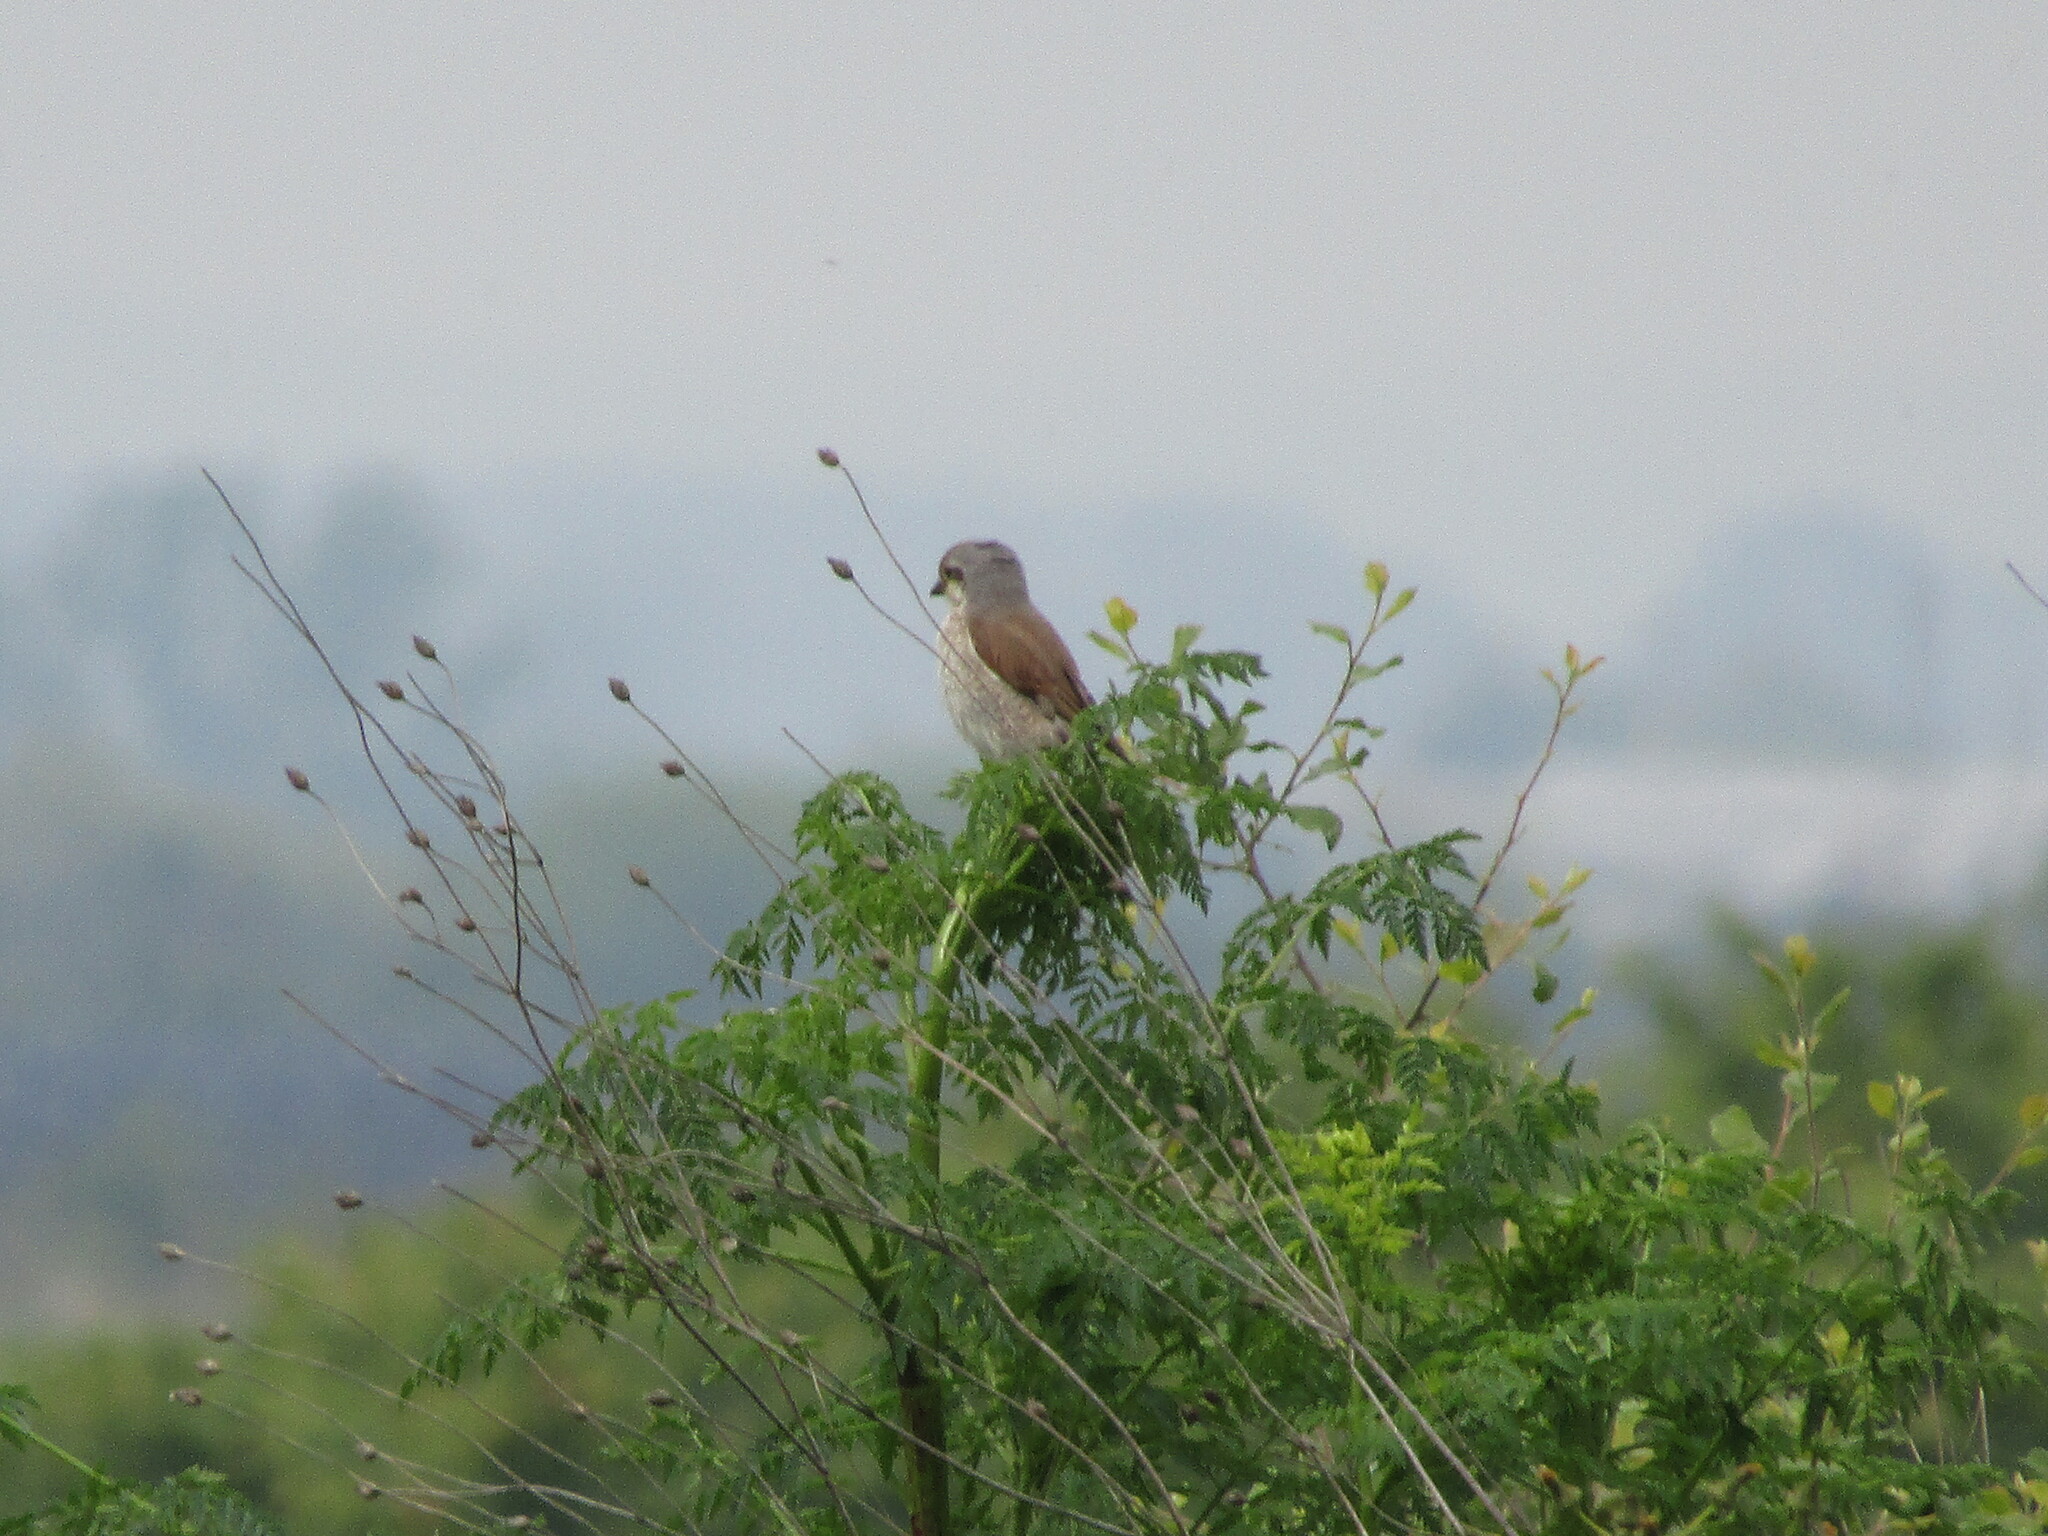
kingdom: Animalia
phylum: Chordata
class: Aves
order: Passeriformes
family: Laniidae
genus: Lanius
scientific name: Lanius collurio
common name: Red-backed shrike
